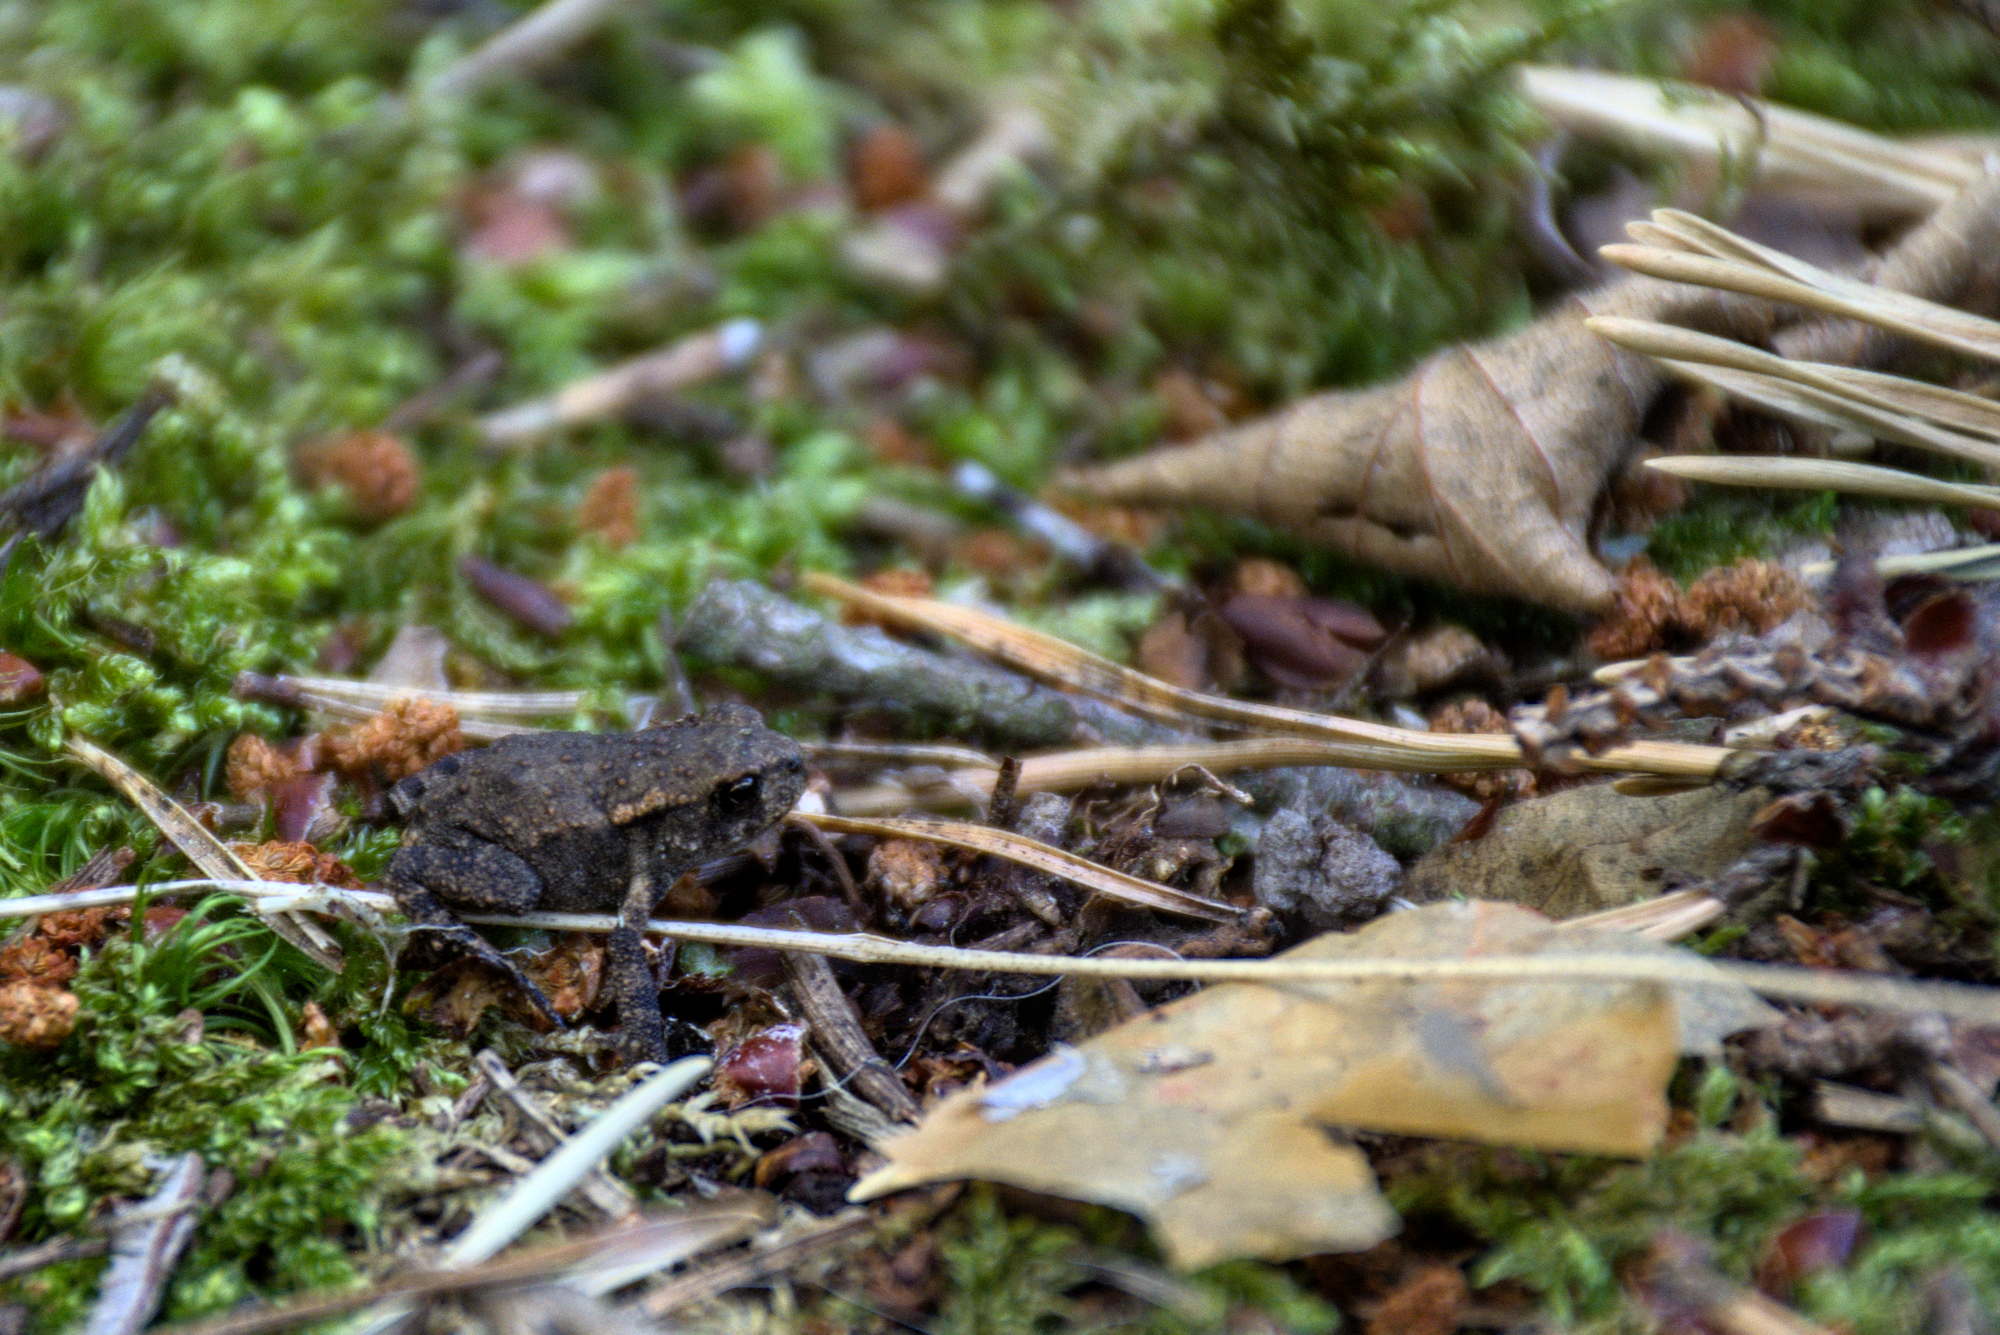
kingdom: Animalia
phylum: Chordata
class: Amphibia
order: Anura
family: Bufonidae
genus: Bufo
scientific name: Bufo bufo
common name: Common toad
